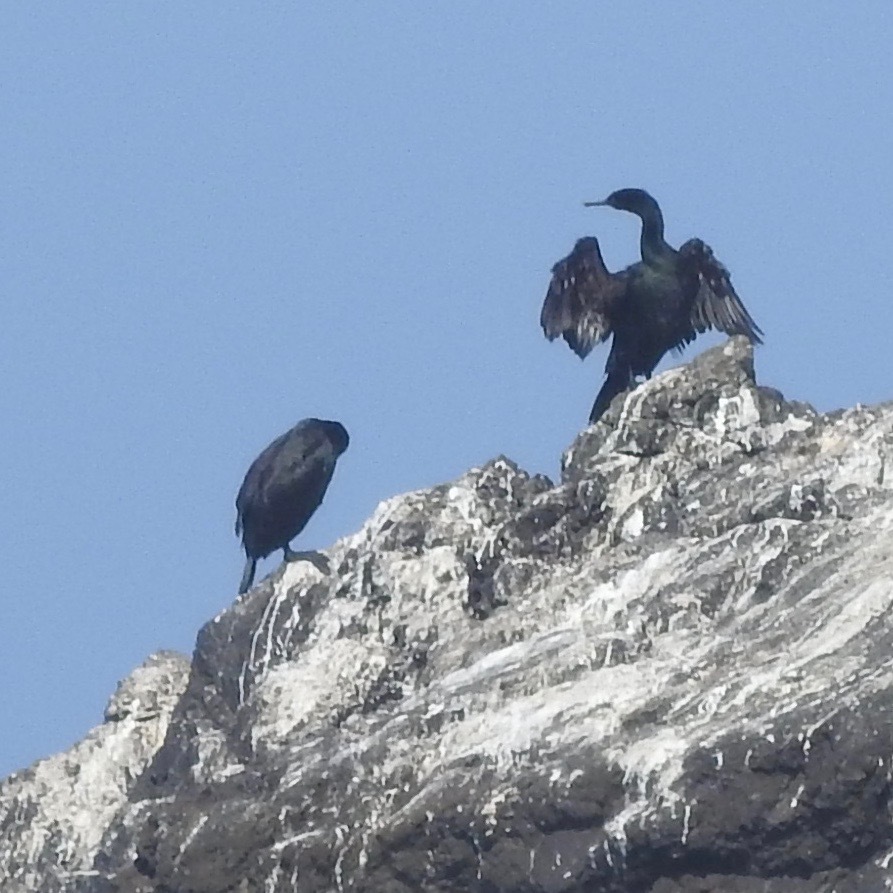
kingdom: Animalia
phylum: Chordata
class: Aves
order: Suliformes
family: Phalacrocoracidae
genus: Phalacrocorax
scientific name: Phalacrocorax pelagicus
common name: Pelagic cormorant
